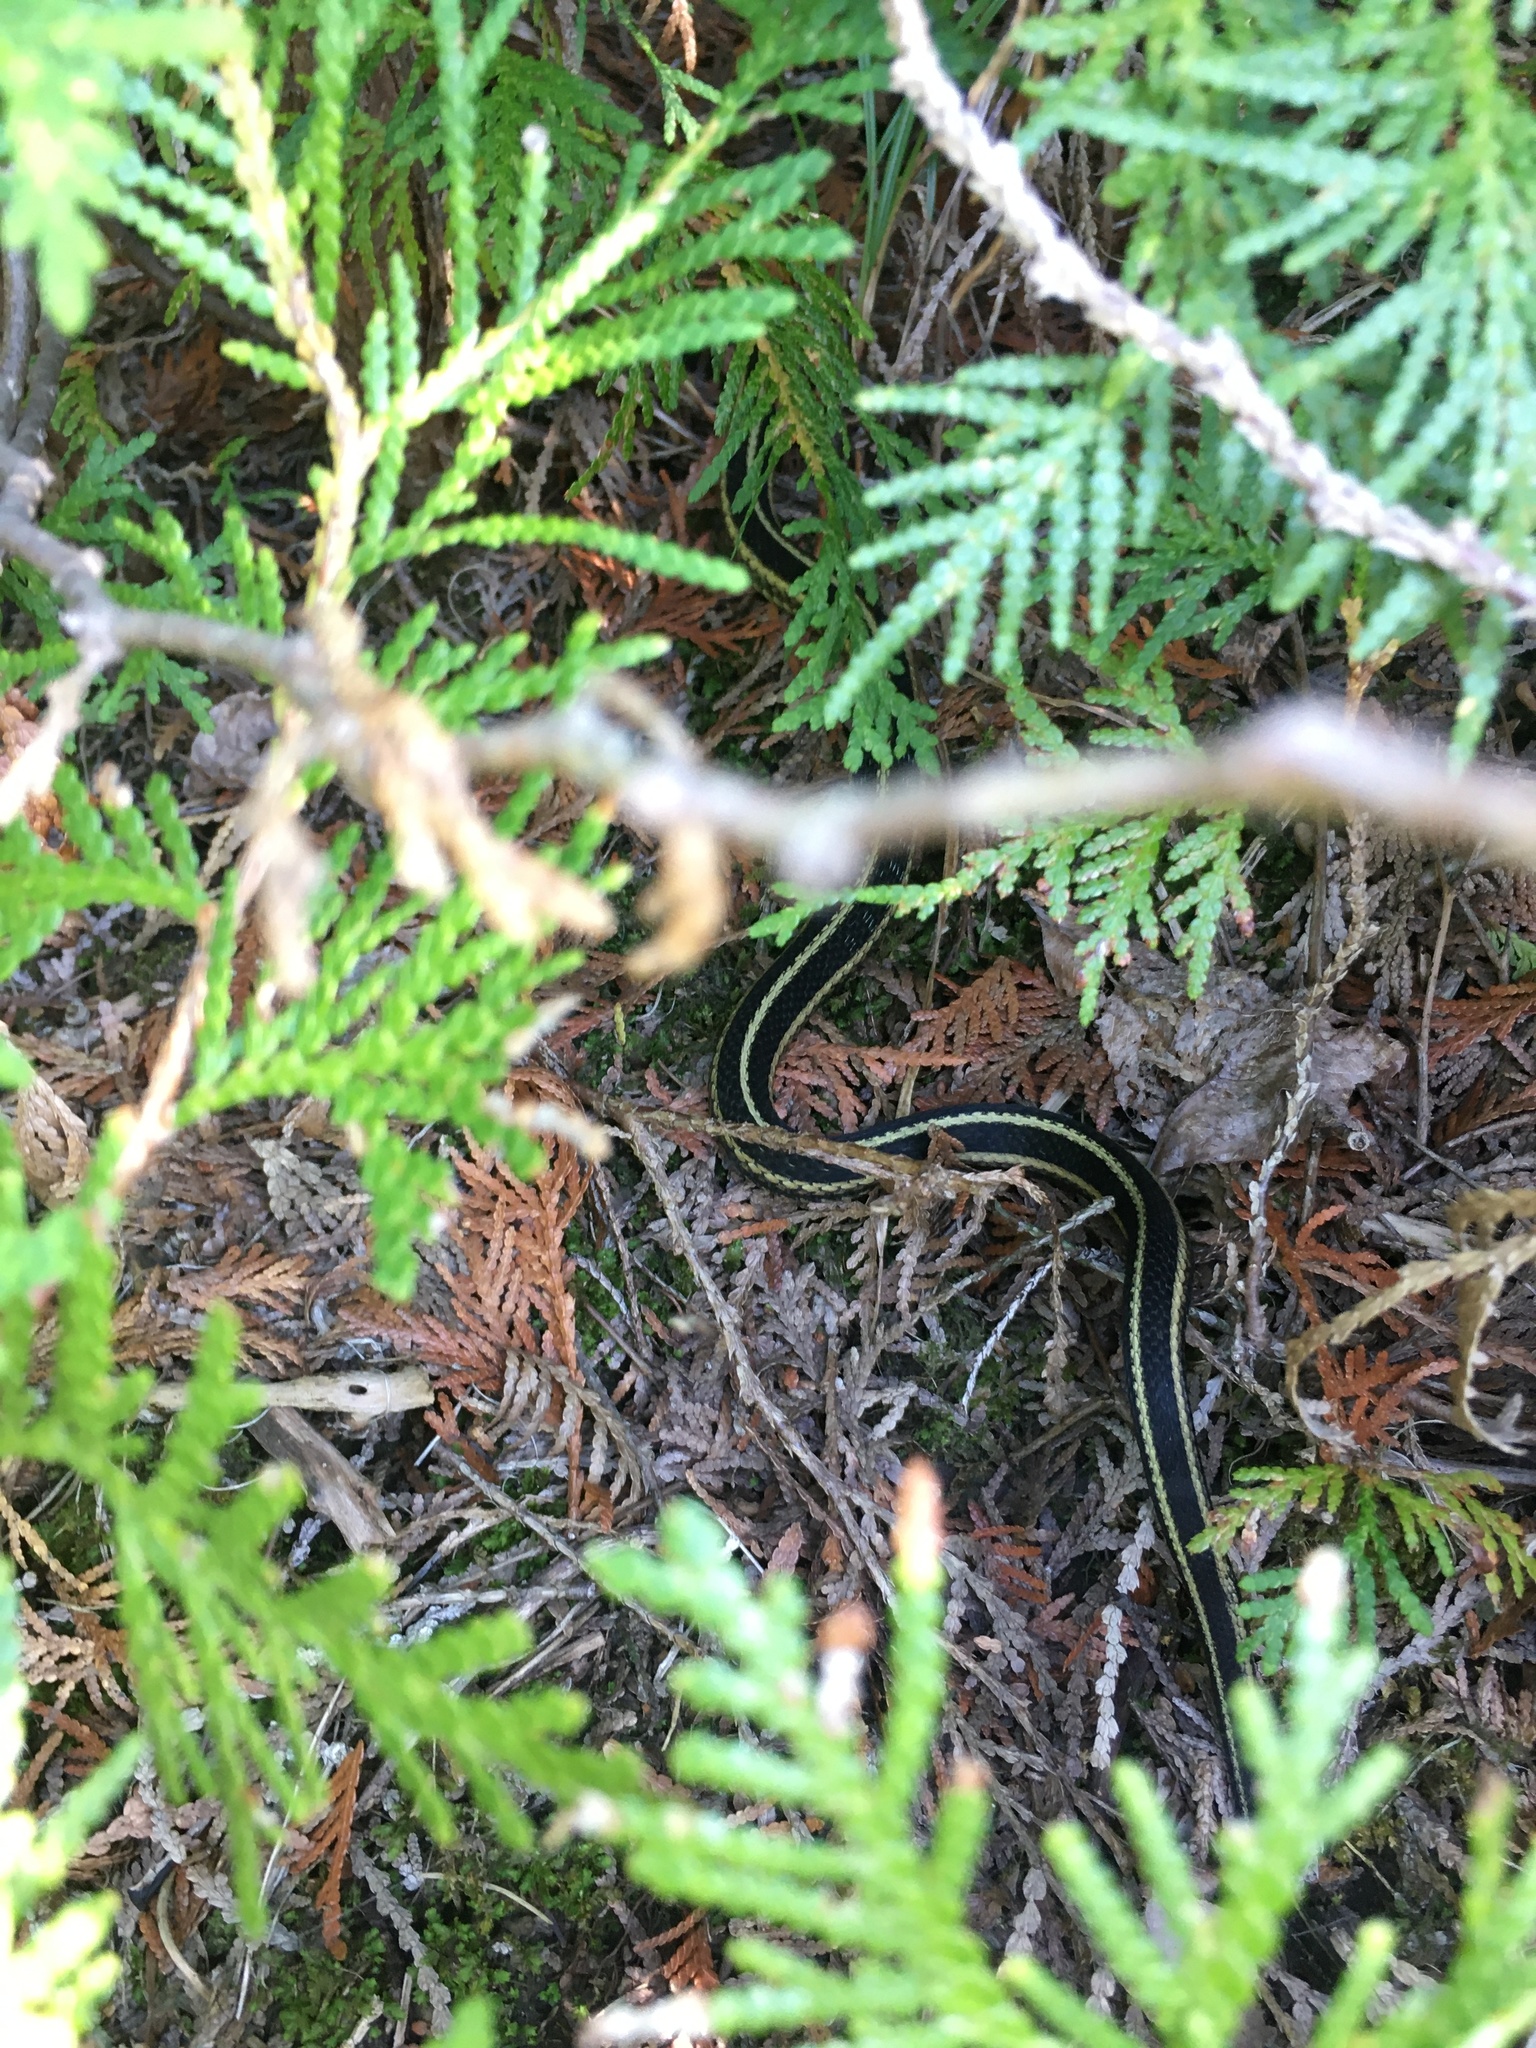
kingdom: Animalia
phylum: Chordata
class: Squamata
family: Colubridae
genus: Thamnophis
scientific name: Thamnophis sirtalis
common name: Common garter snake
